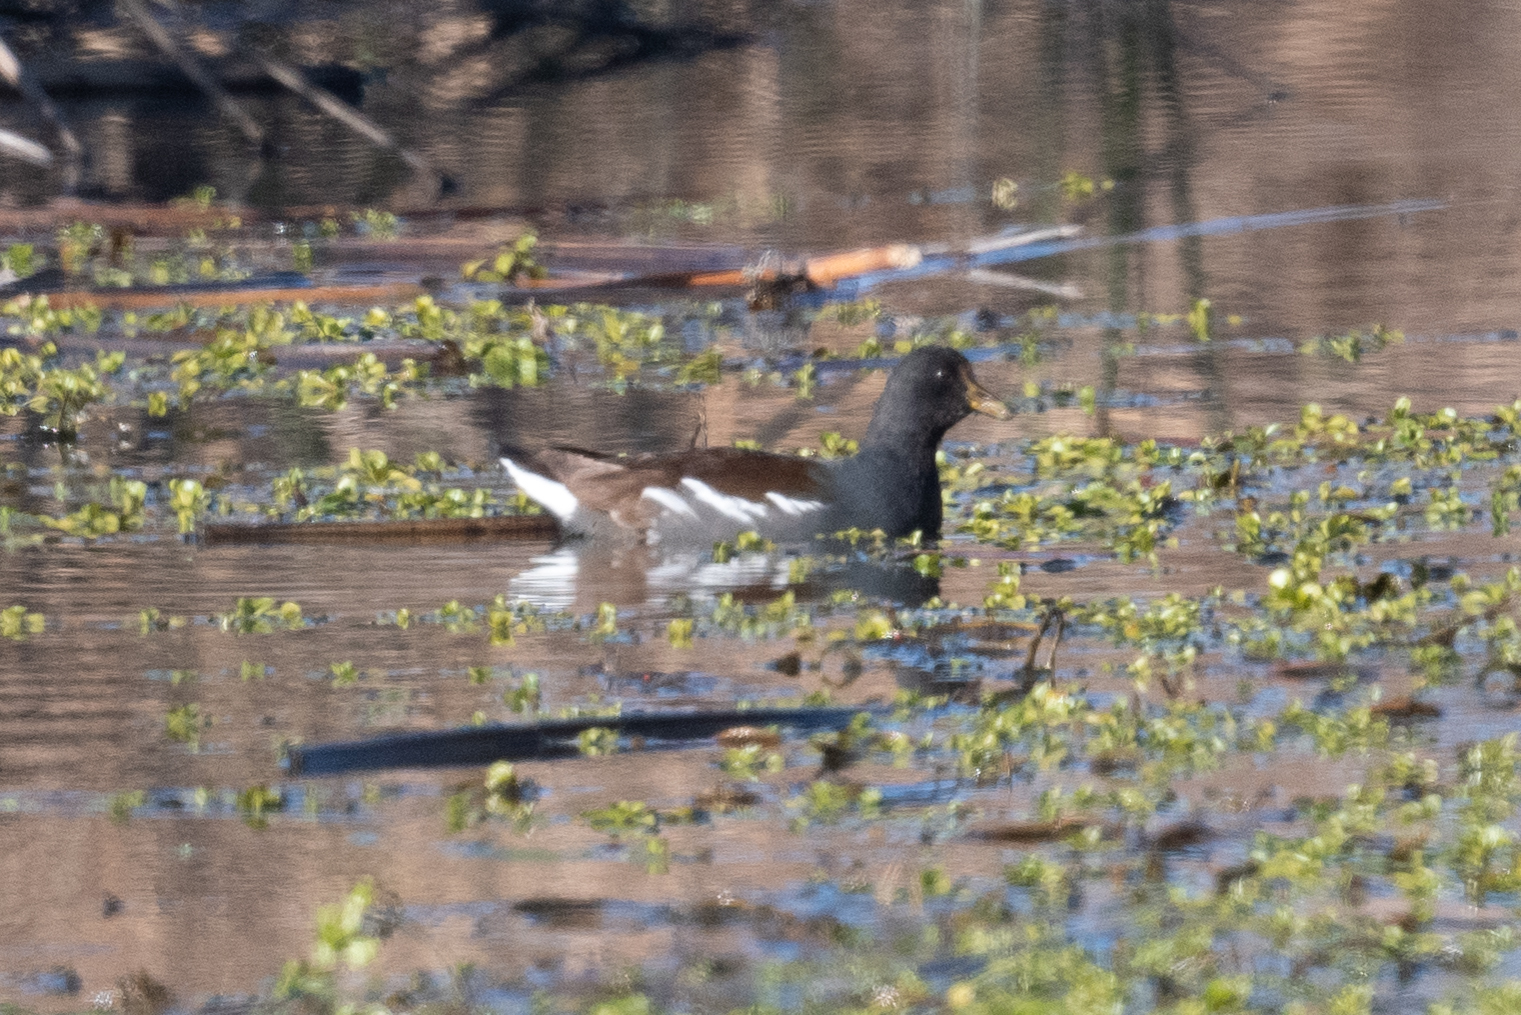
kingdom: Animalia
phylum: Chordata
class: Aves
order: Gruiformes
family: Rallidae
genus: Gallinula
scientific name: Gallinula chloropus
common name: Common moorhen
